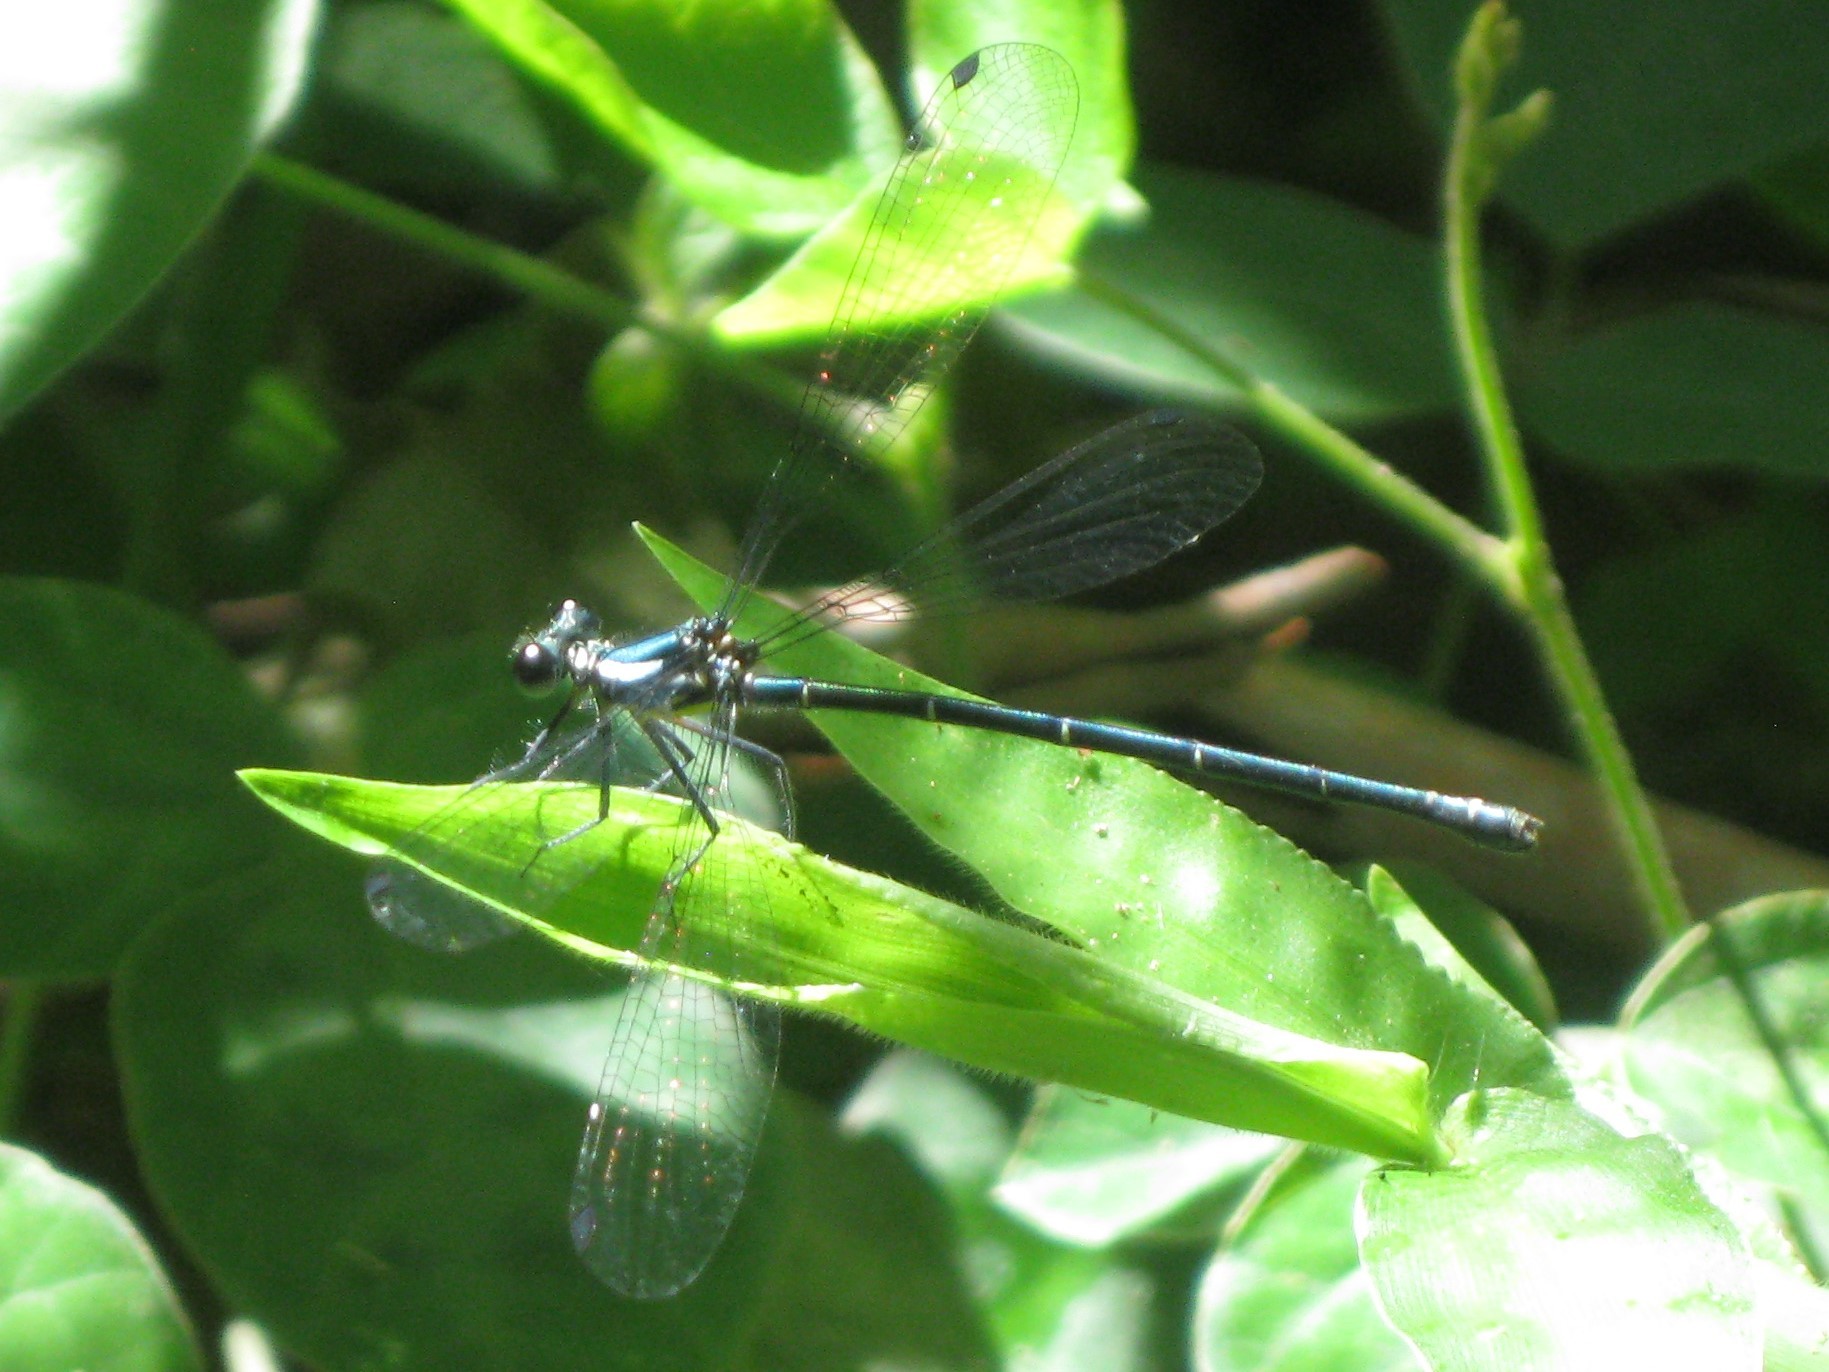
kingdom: Animalia
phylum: Arthropoda
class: Insecta
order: Odonata
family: Argiolestidae
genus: Austroargiolestes
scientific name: Austroargiolestes icteromelas
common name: Common flatwing
